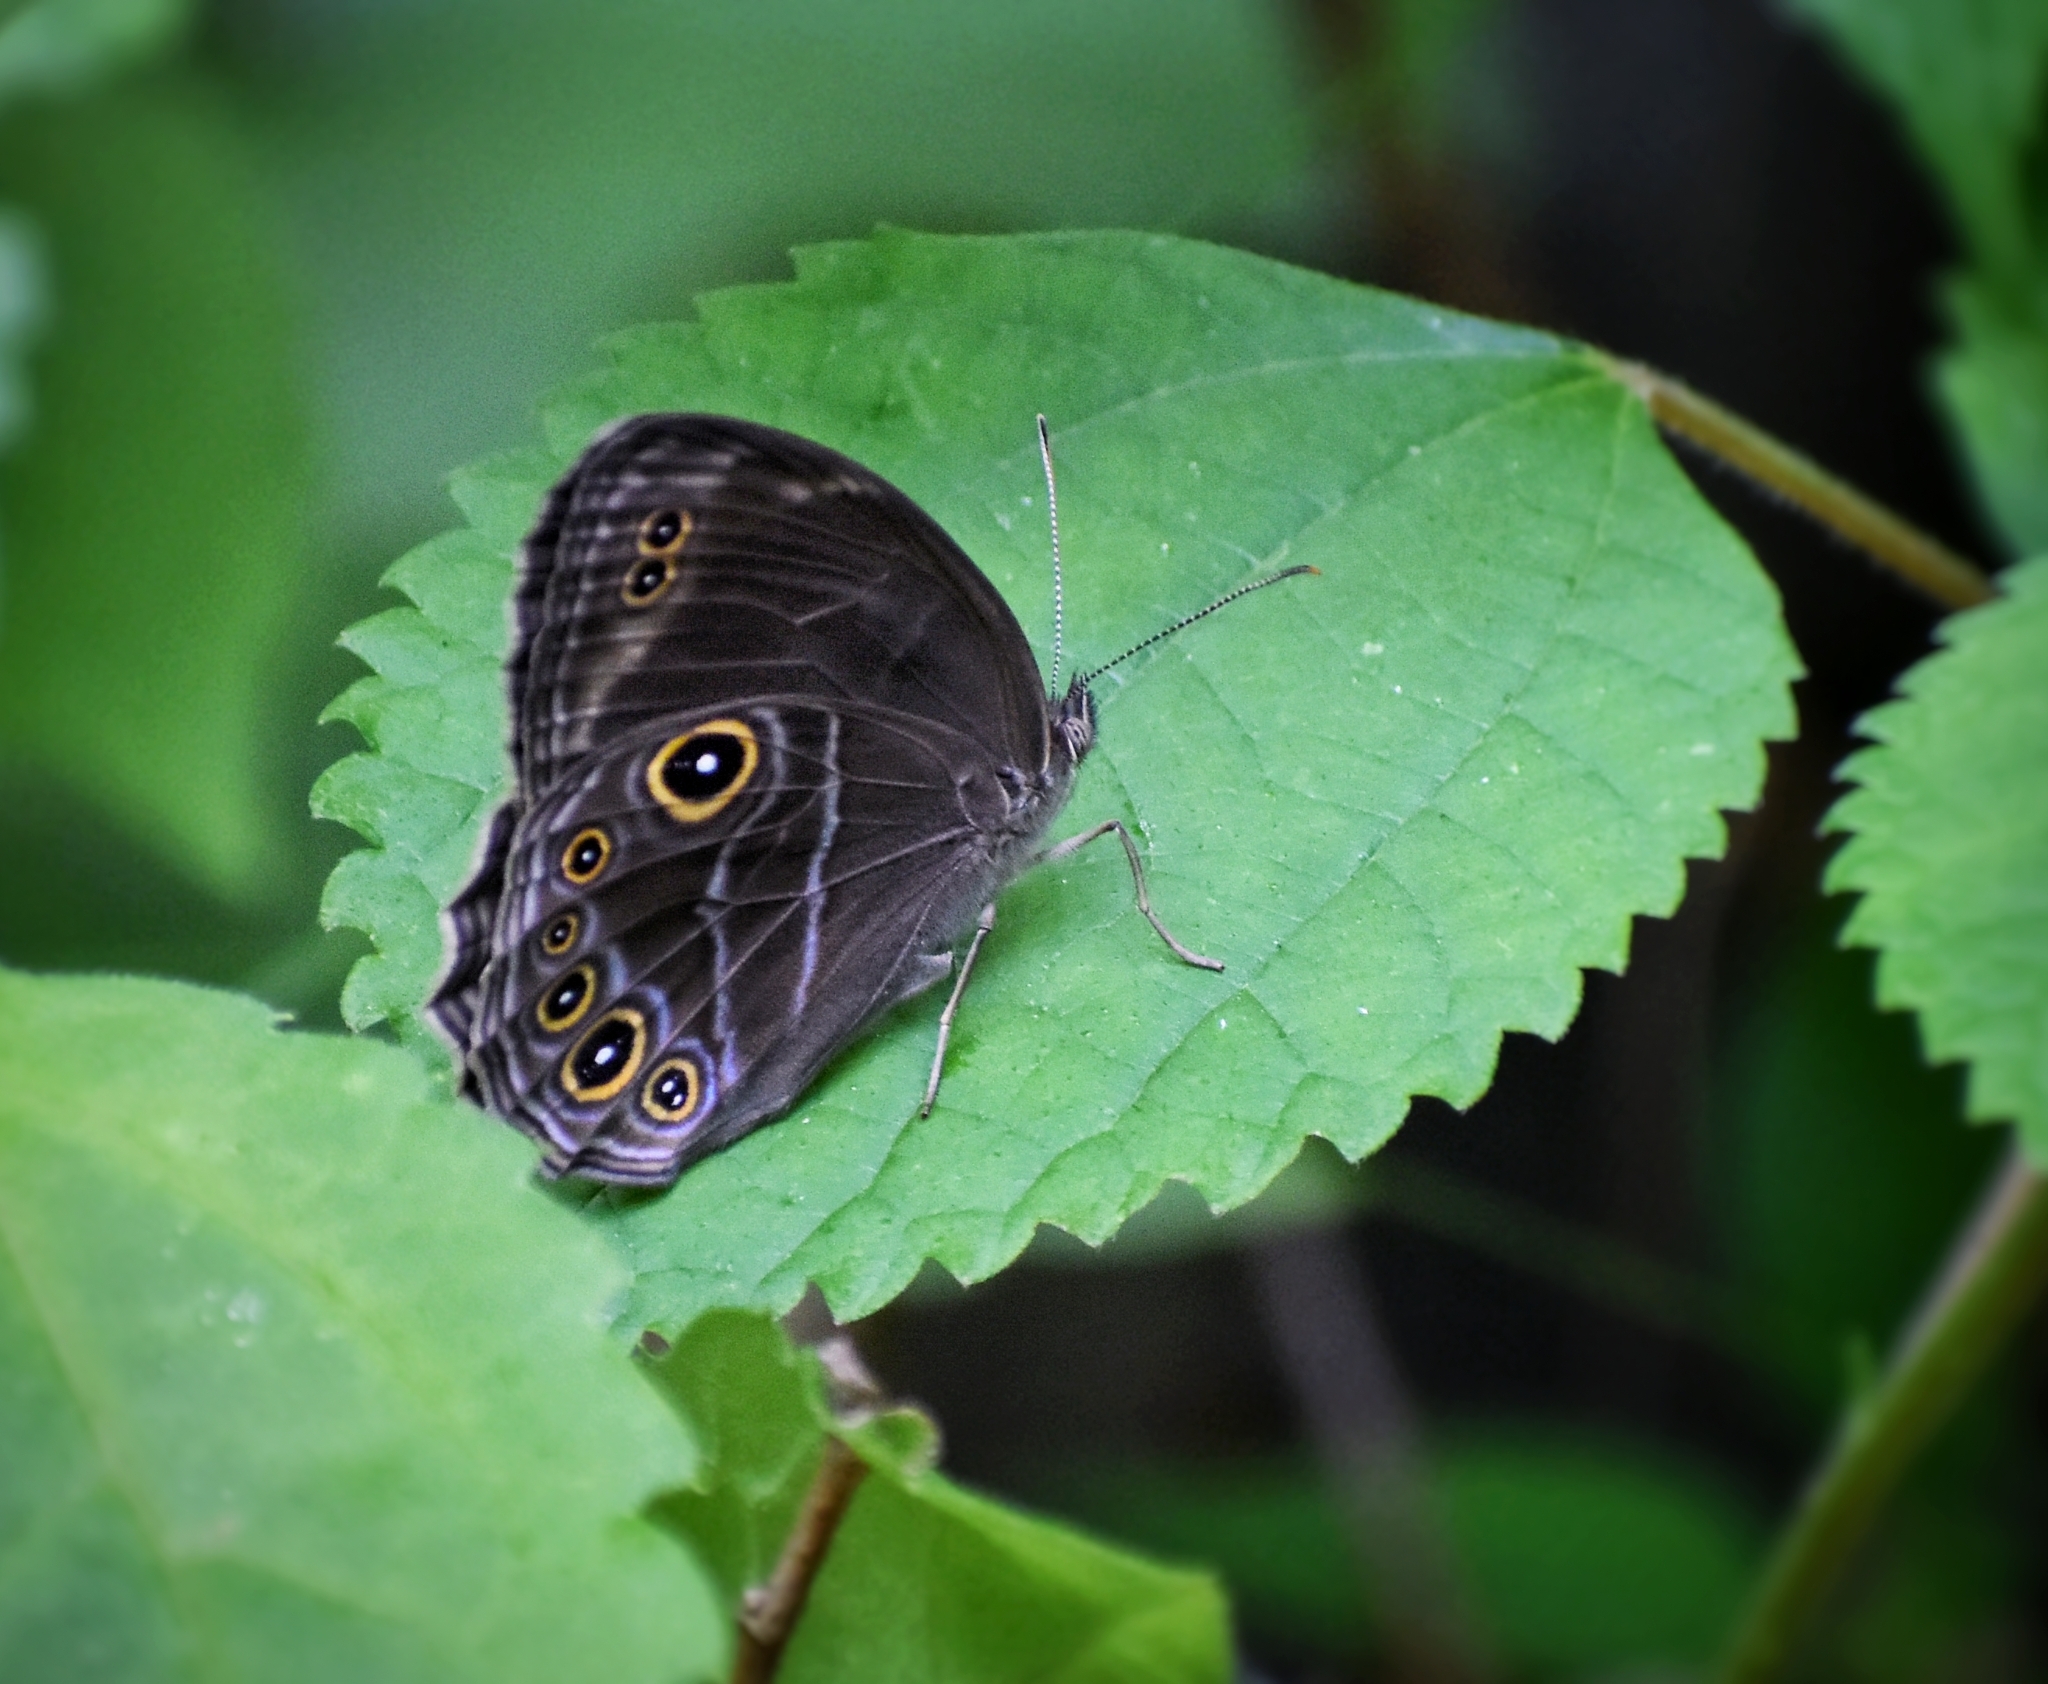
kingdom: Animalia
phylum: Arthropoda
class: Insecta
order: Lepidoptera
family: Nymphalidae
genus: Lethe
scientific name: Lethe satyrina
